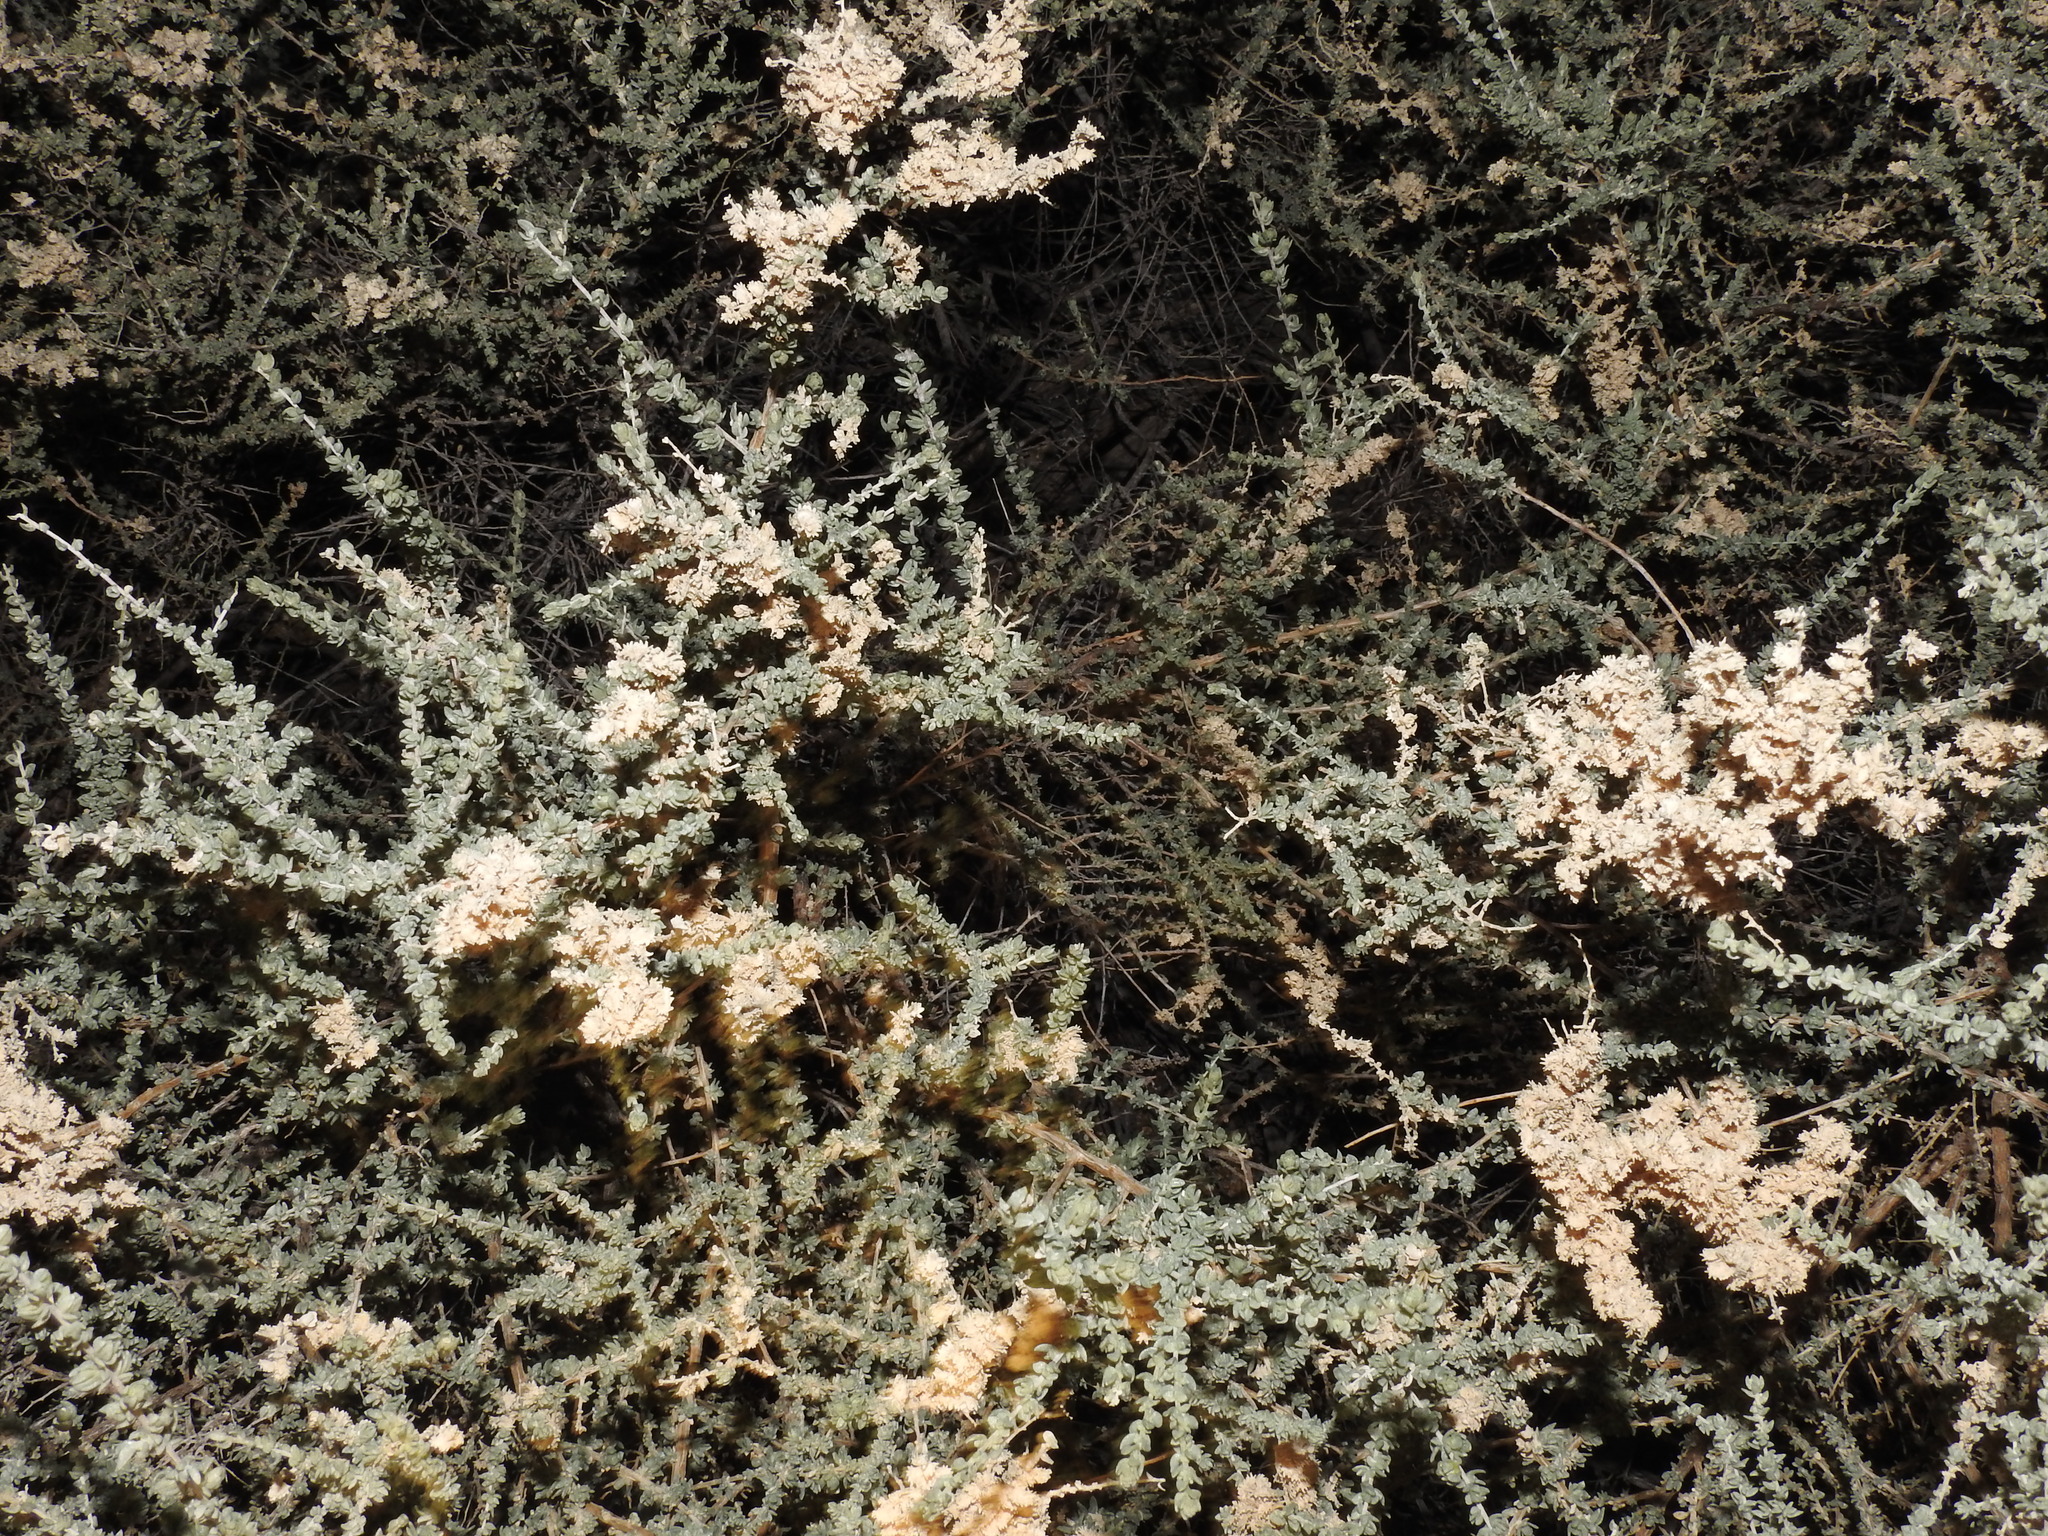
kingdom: Plantae
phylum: Tracheophyta
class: Magnoliopsida
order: Caryophyllales
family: Amaranthaceae
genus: Atriplex
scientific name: Atriplex polycarpa
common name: Desert saltbush
